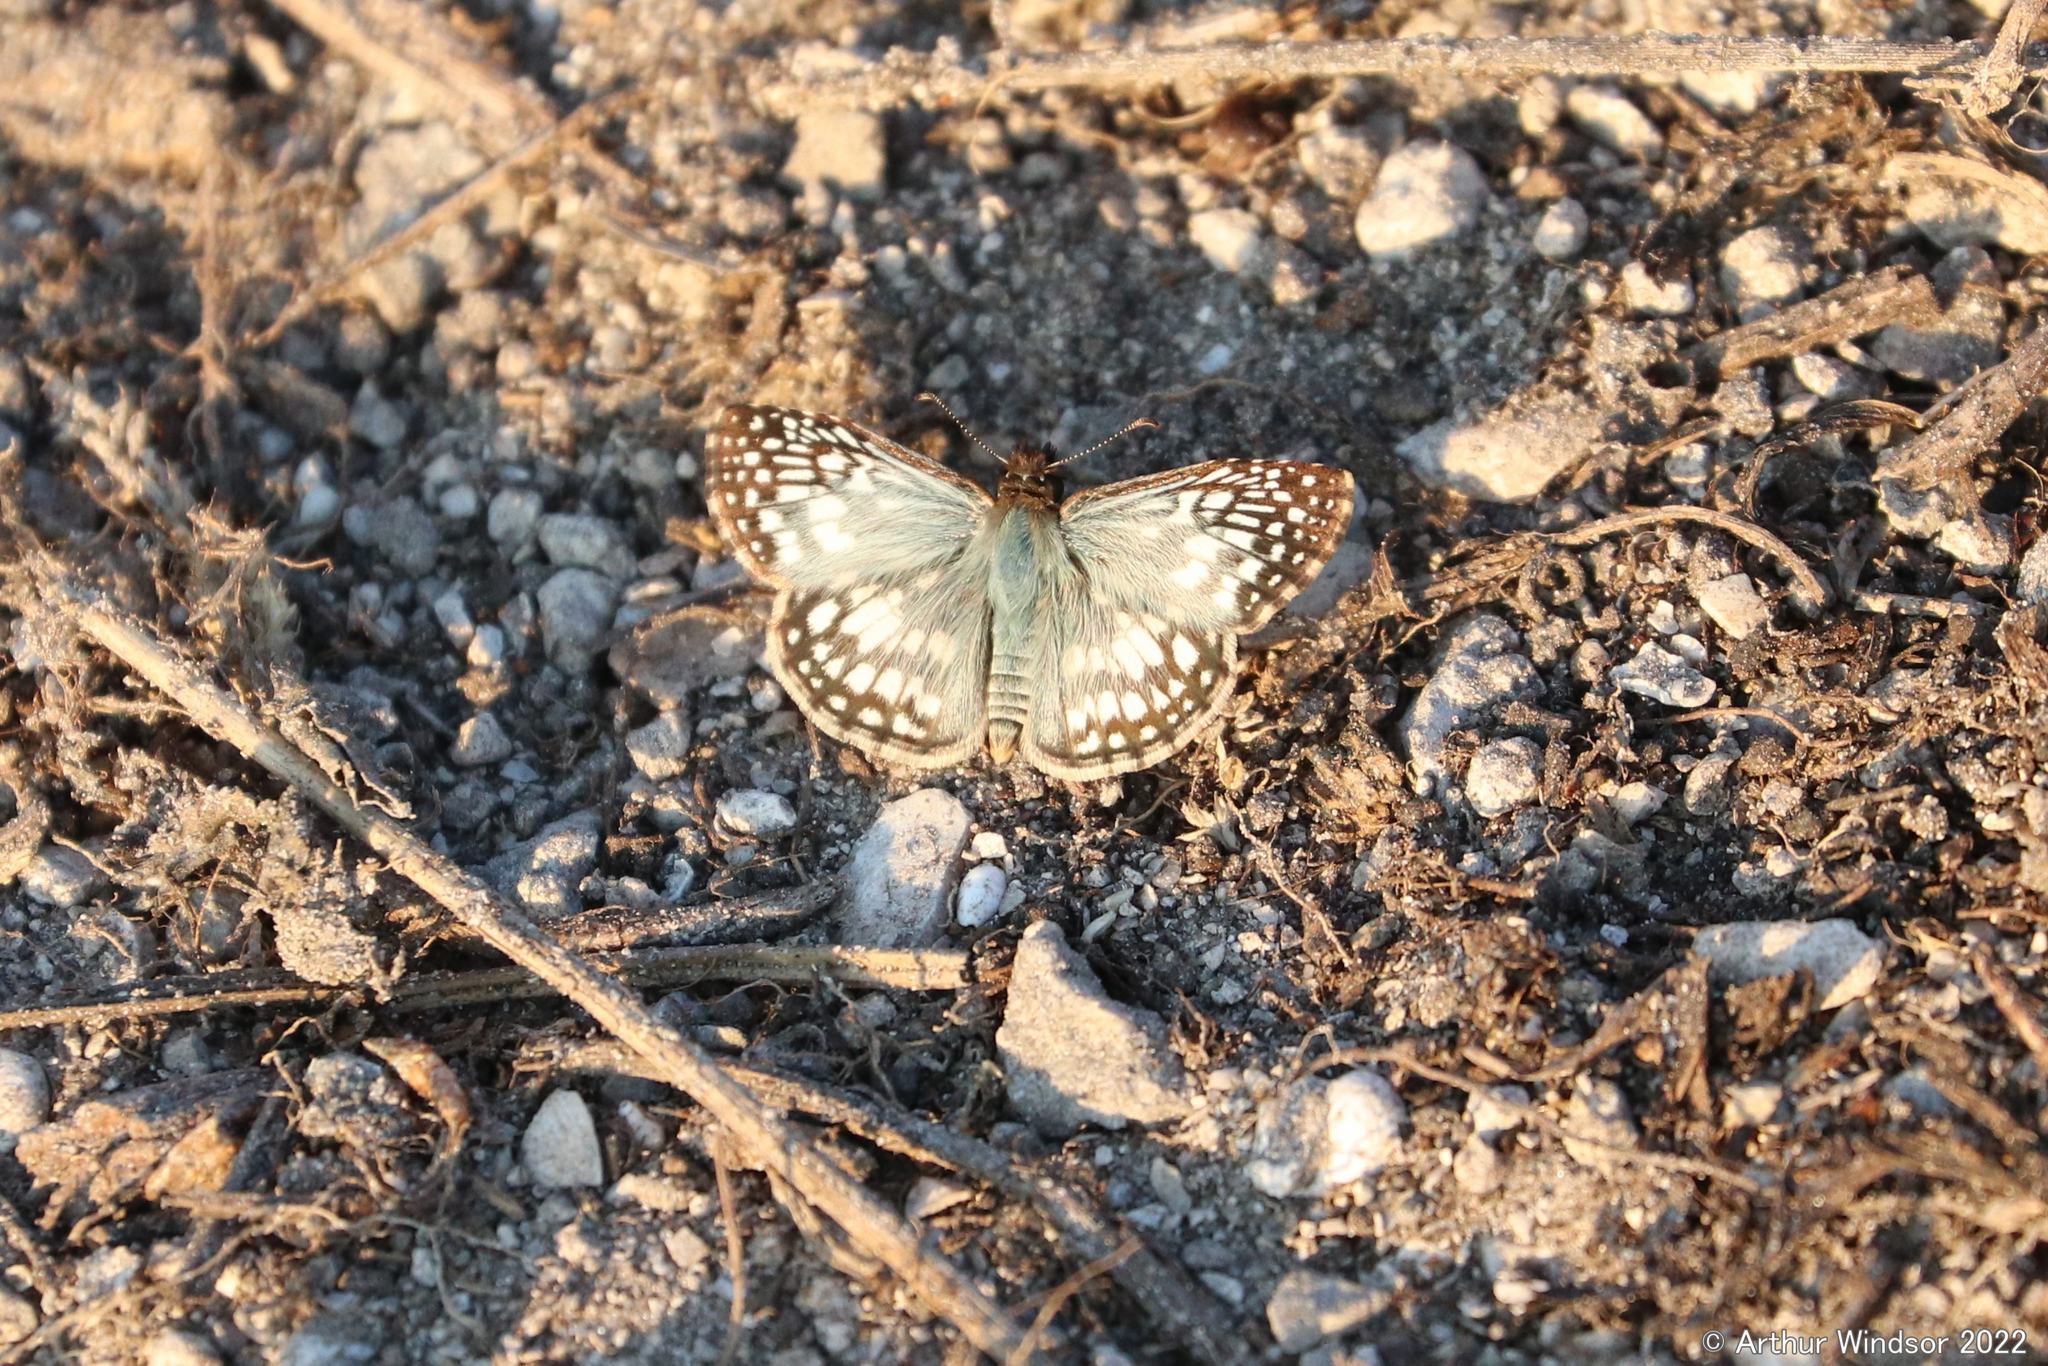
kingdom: Animalia
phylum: Arthropoda
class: Insecta
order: Lepidoptera
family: Hesperiidae
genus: Pyrgus
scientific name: Pyrgus oileus
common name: Tropical checkered-skipper
